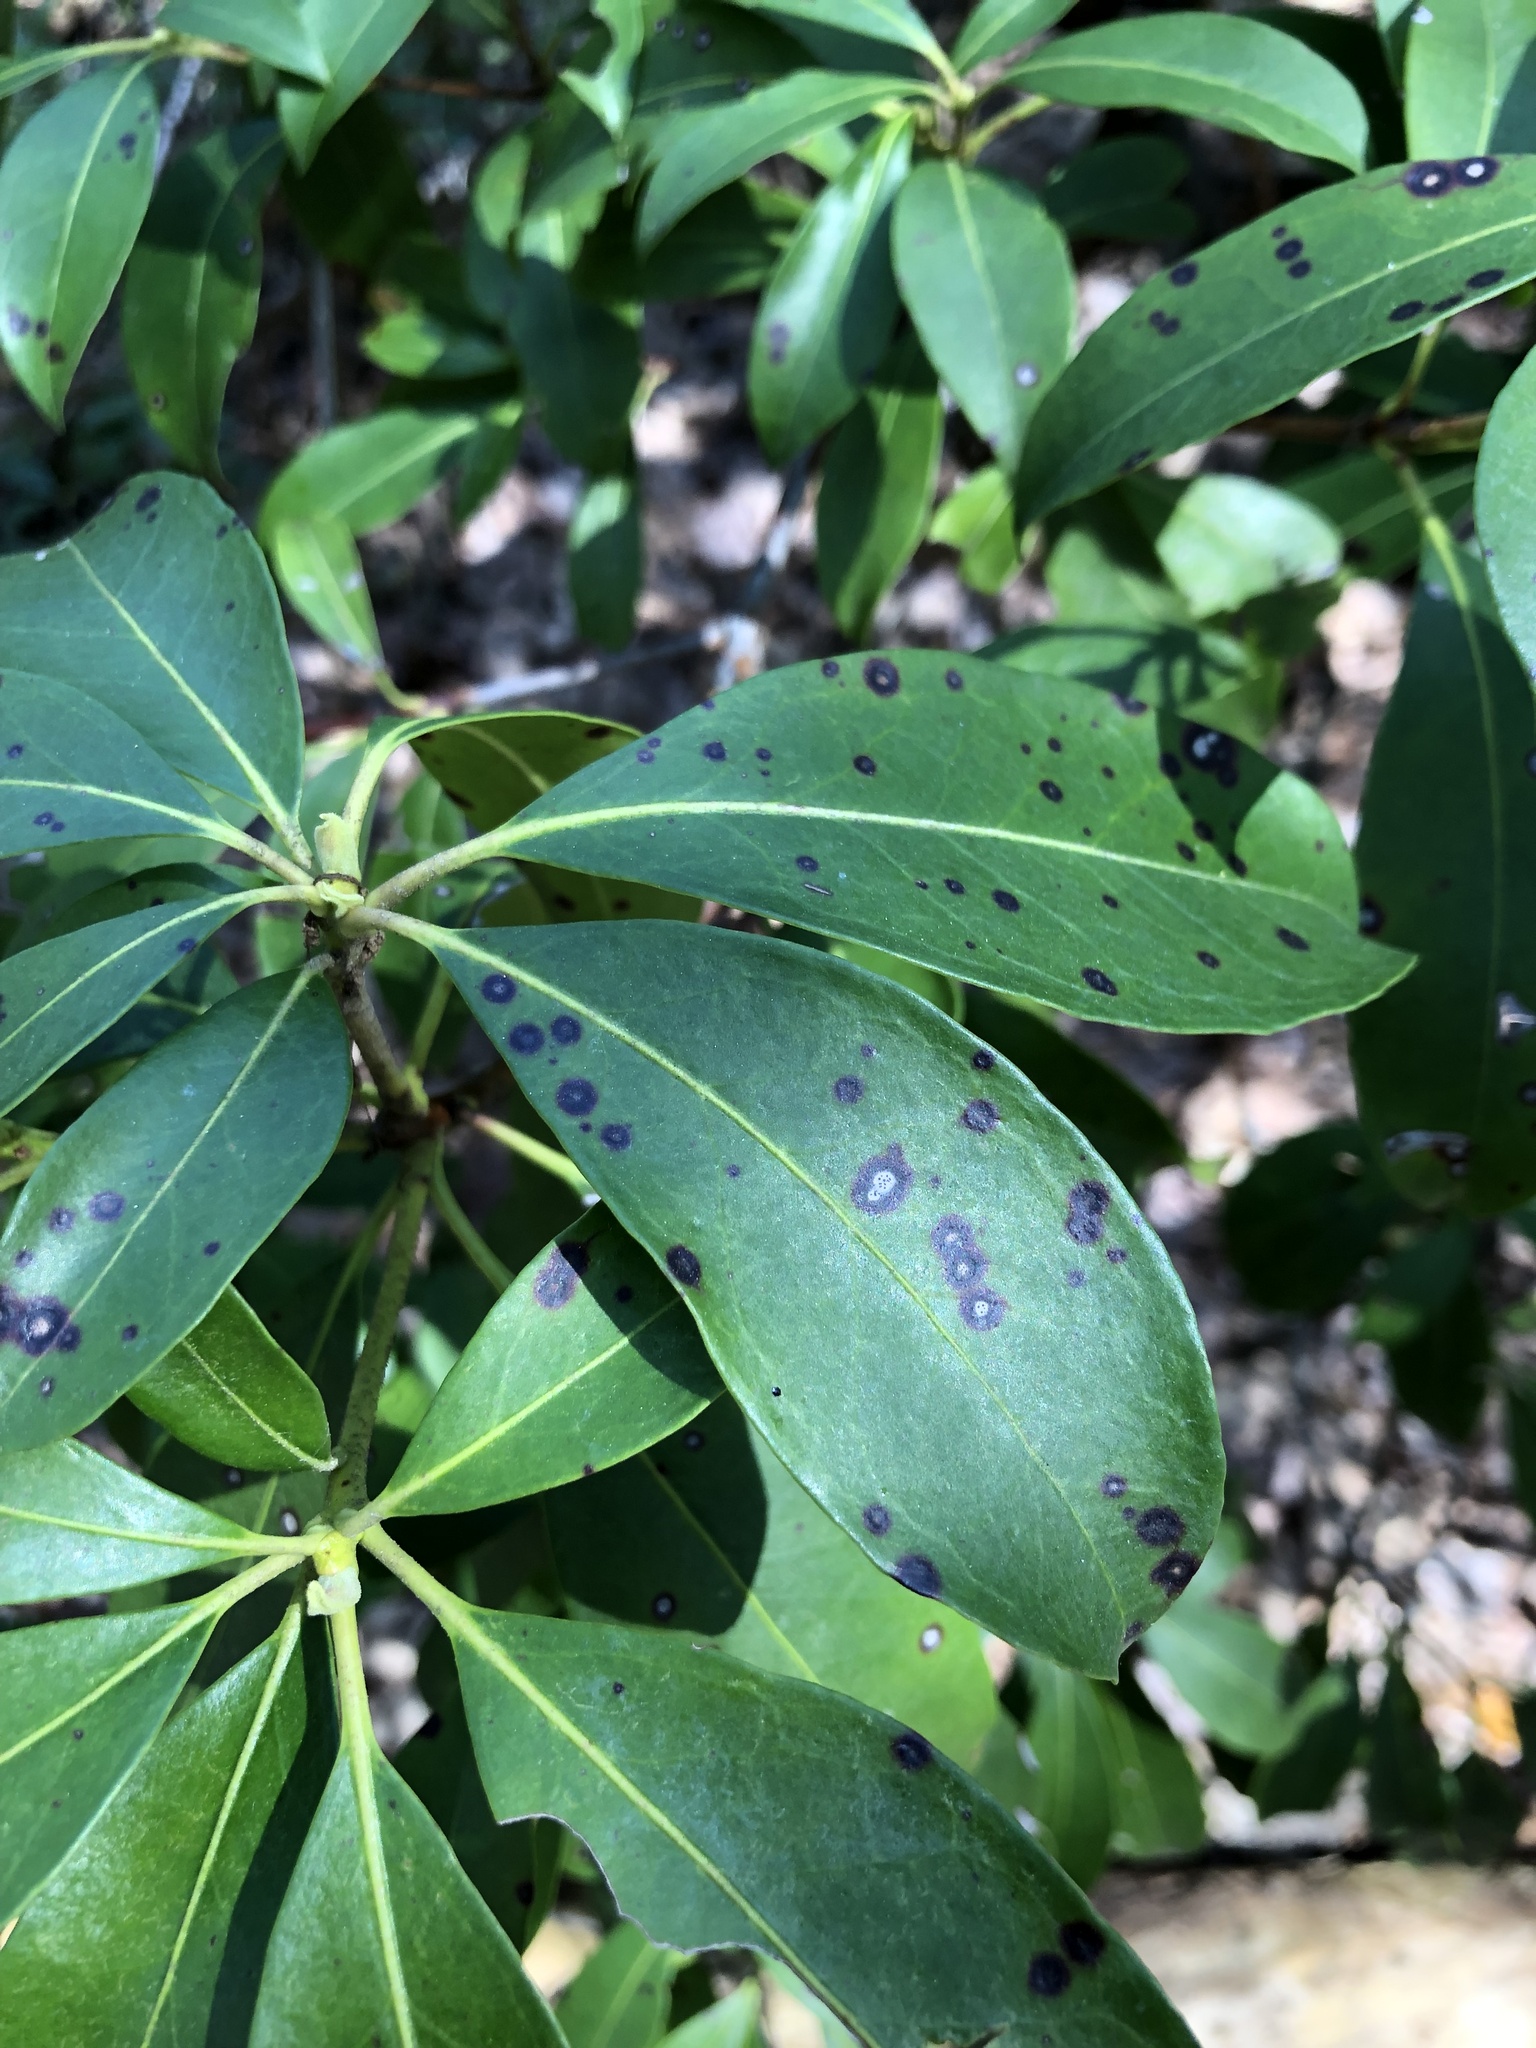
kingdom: Fungi
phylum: Ascomycota
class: Dothideomycetes
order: Mycosphaerellales
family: Mycosphaerellaceae
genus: Mycosphaerella
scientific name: Mycosphaerella colorata
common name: Mountain laurel leaf spot
